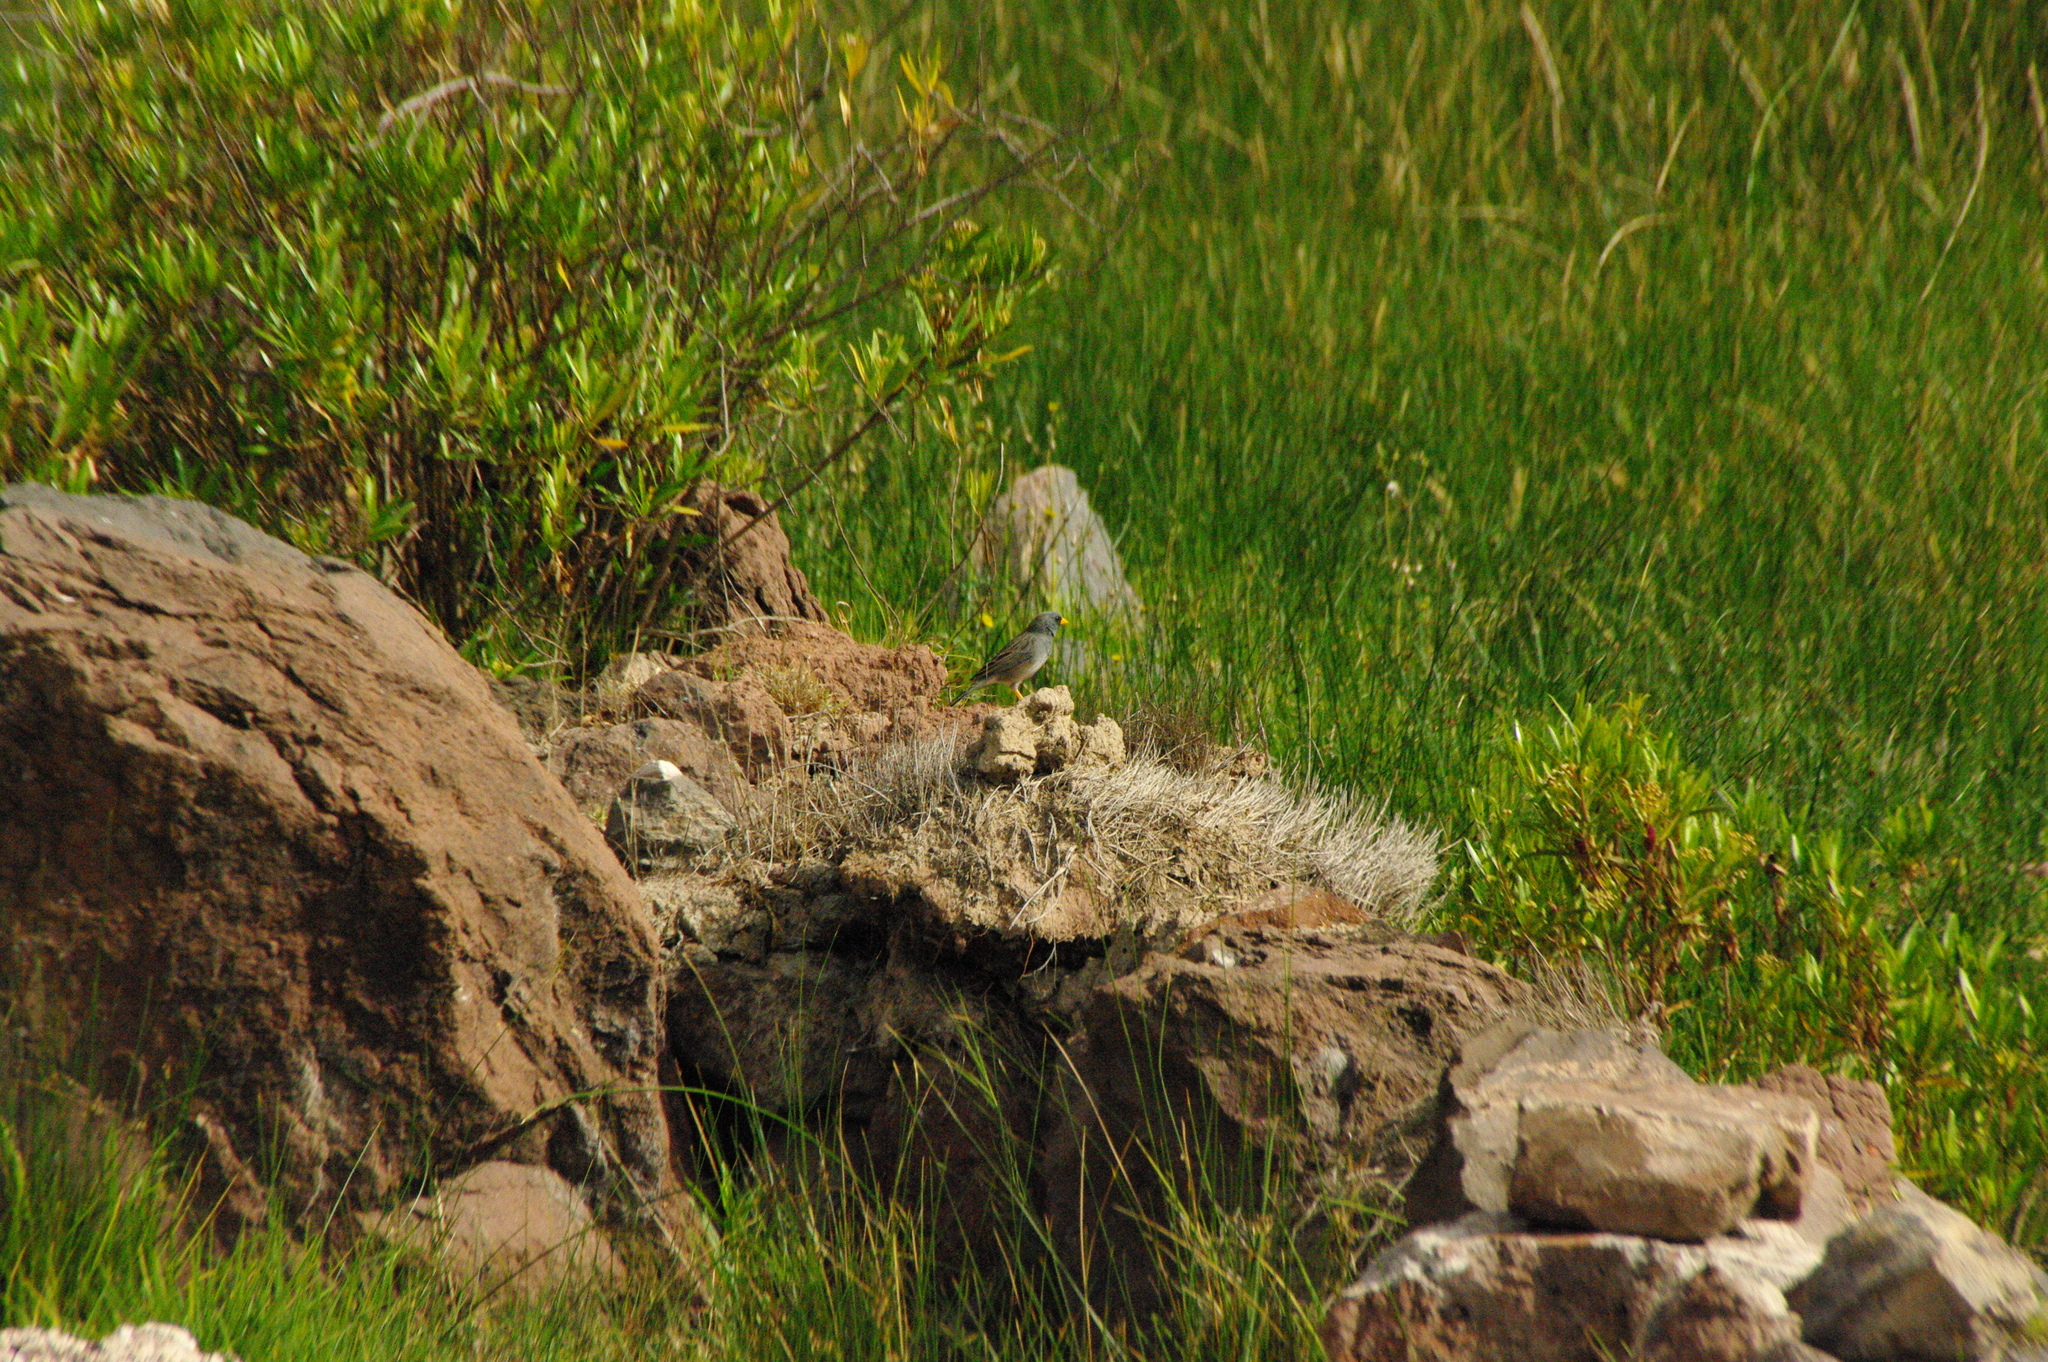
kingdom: Animalia
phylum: Chordata
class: Aves
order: Passeriformes
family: Thraupidae
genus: Porphyrospiza
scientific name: Porphyrospiza alaudina
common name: Band-tailed sierra finch
